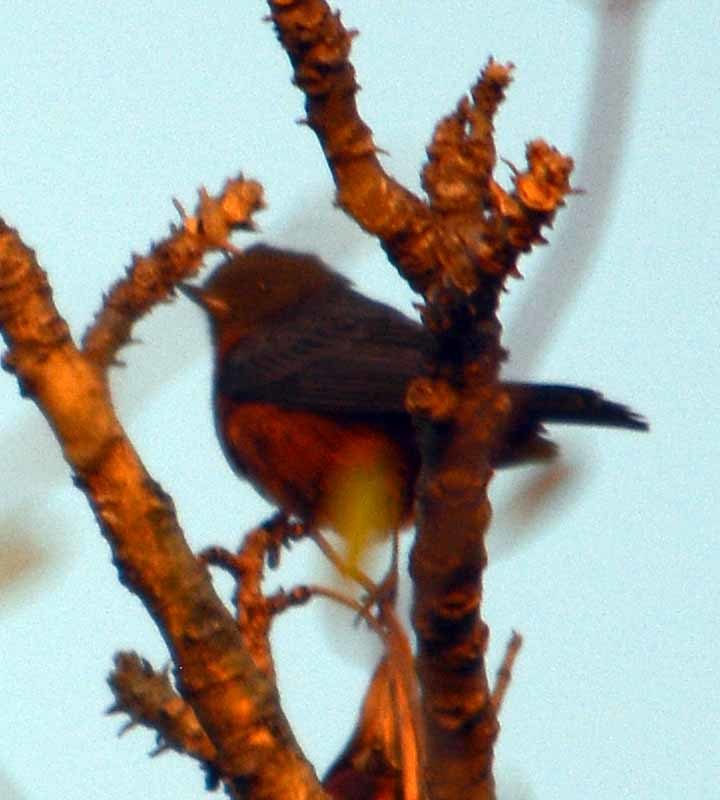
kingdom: Animalia
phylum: Chordata
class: Aves
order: Passeriformes
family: Thraupidae
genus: Diglossa
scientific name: Diglossa baritula
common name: Cinnamon-bellied flowerpiercer
